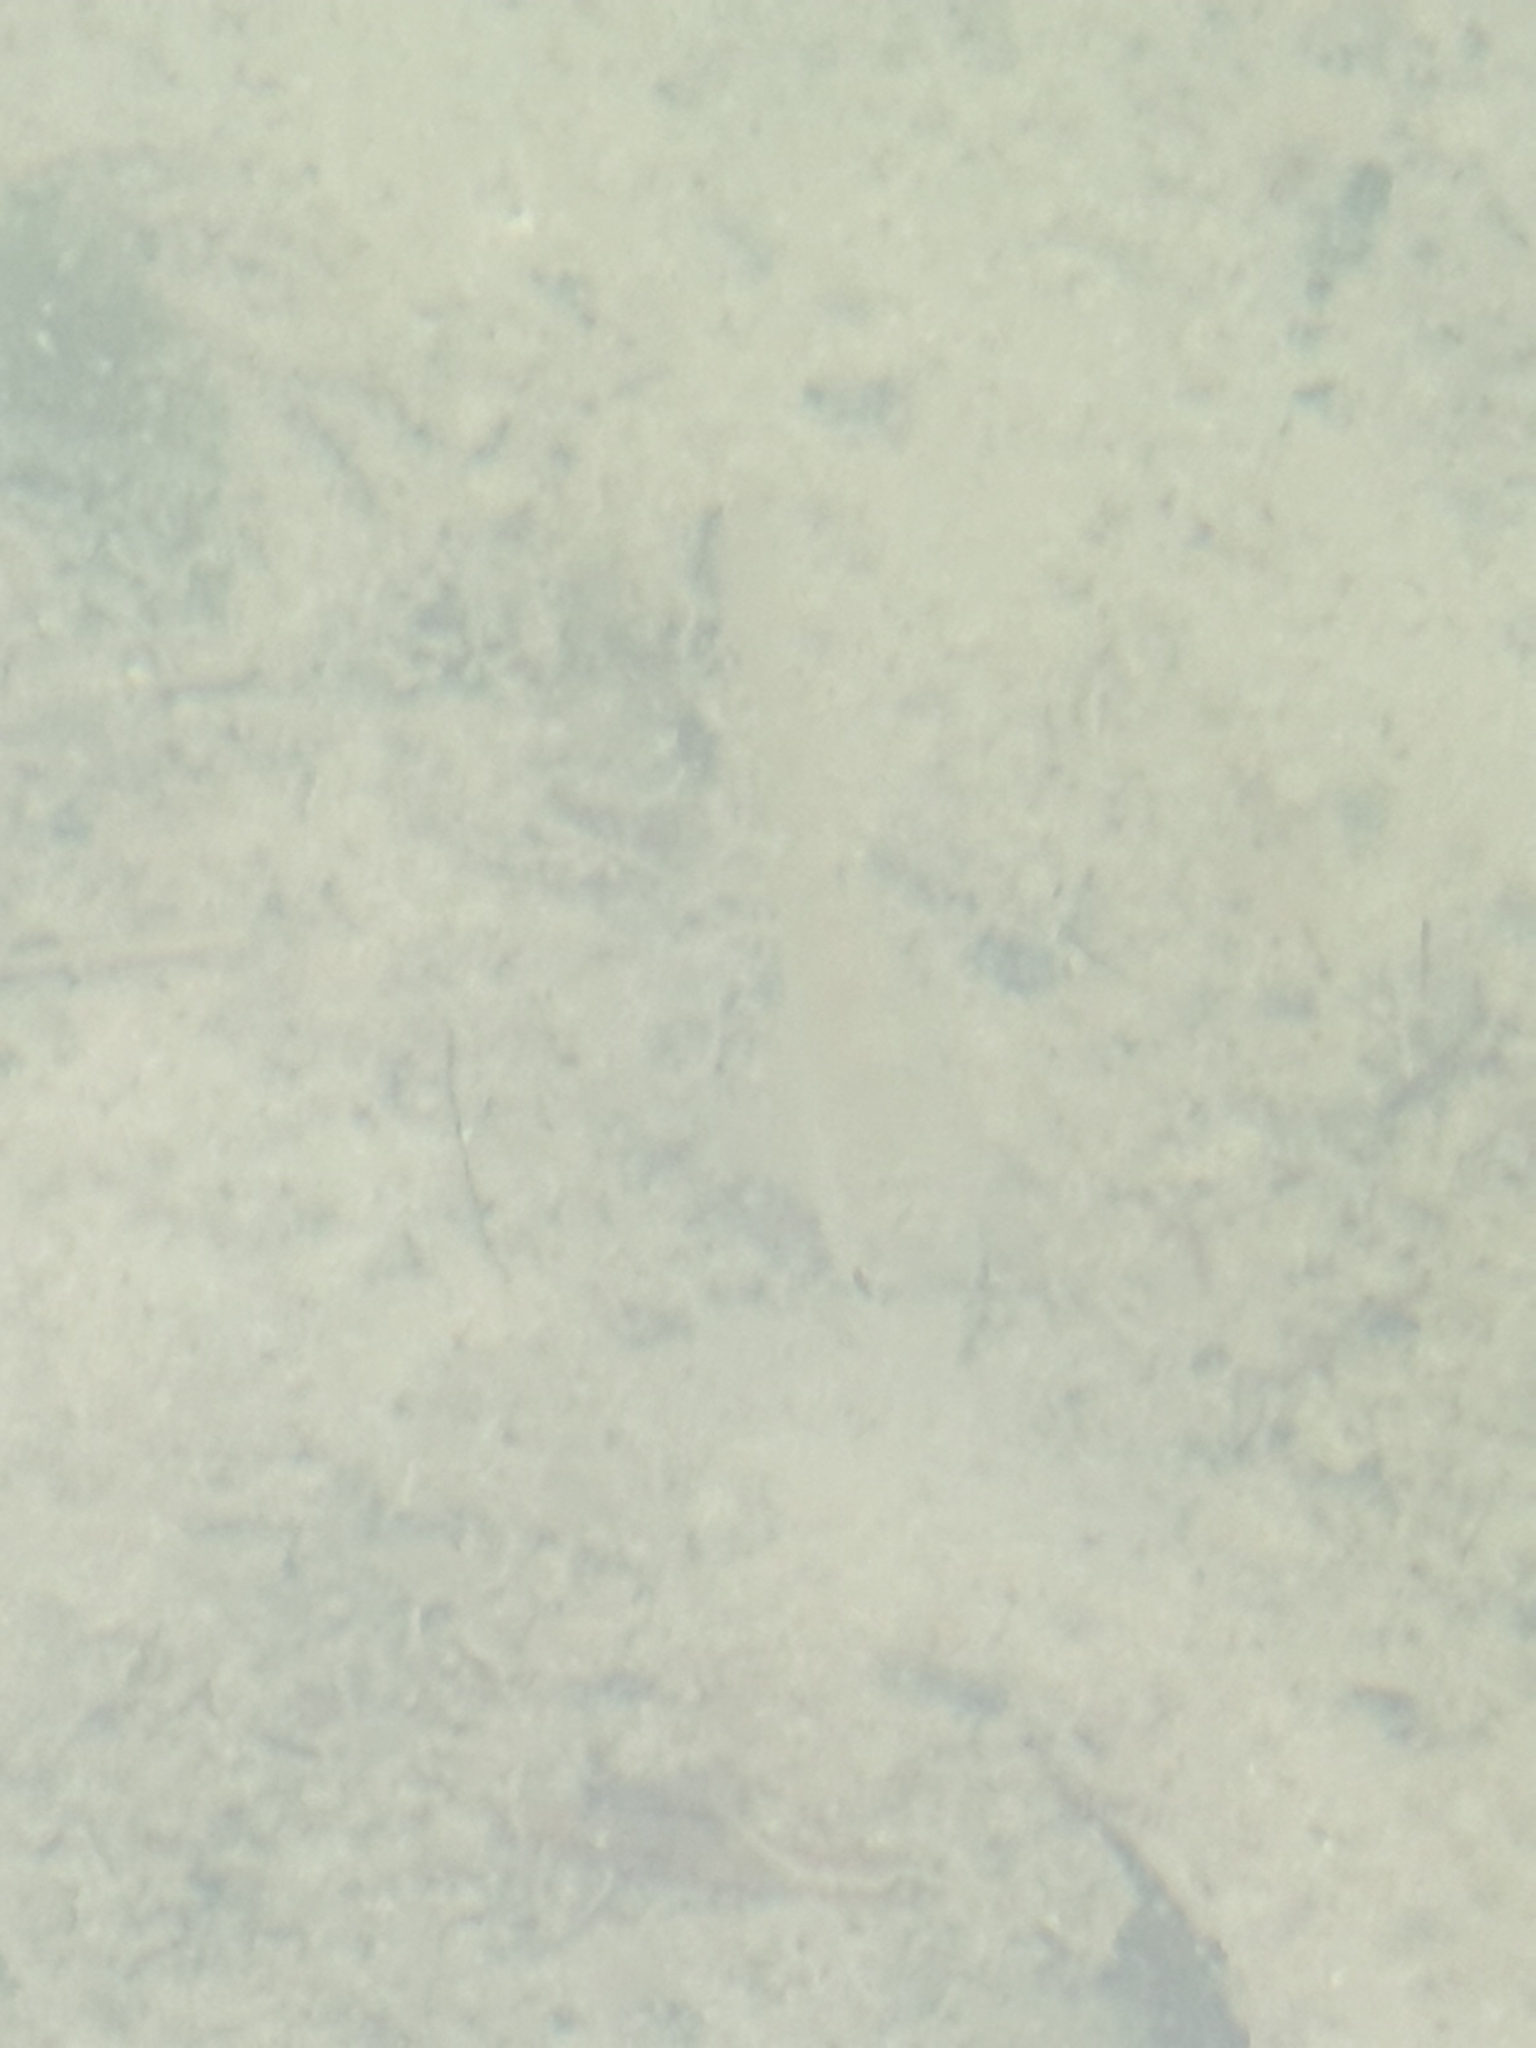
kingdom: Animalia
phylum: Chordata
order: Perciformes
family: Percidae
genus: Perca
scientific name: Perca fluviatilis
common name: Perch
